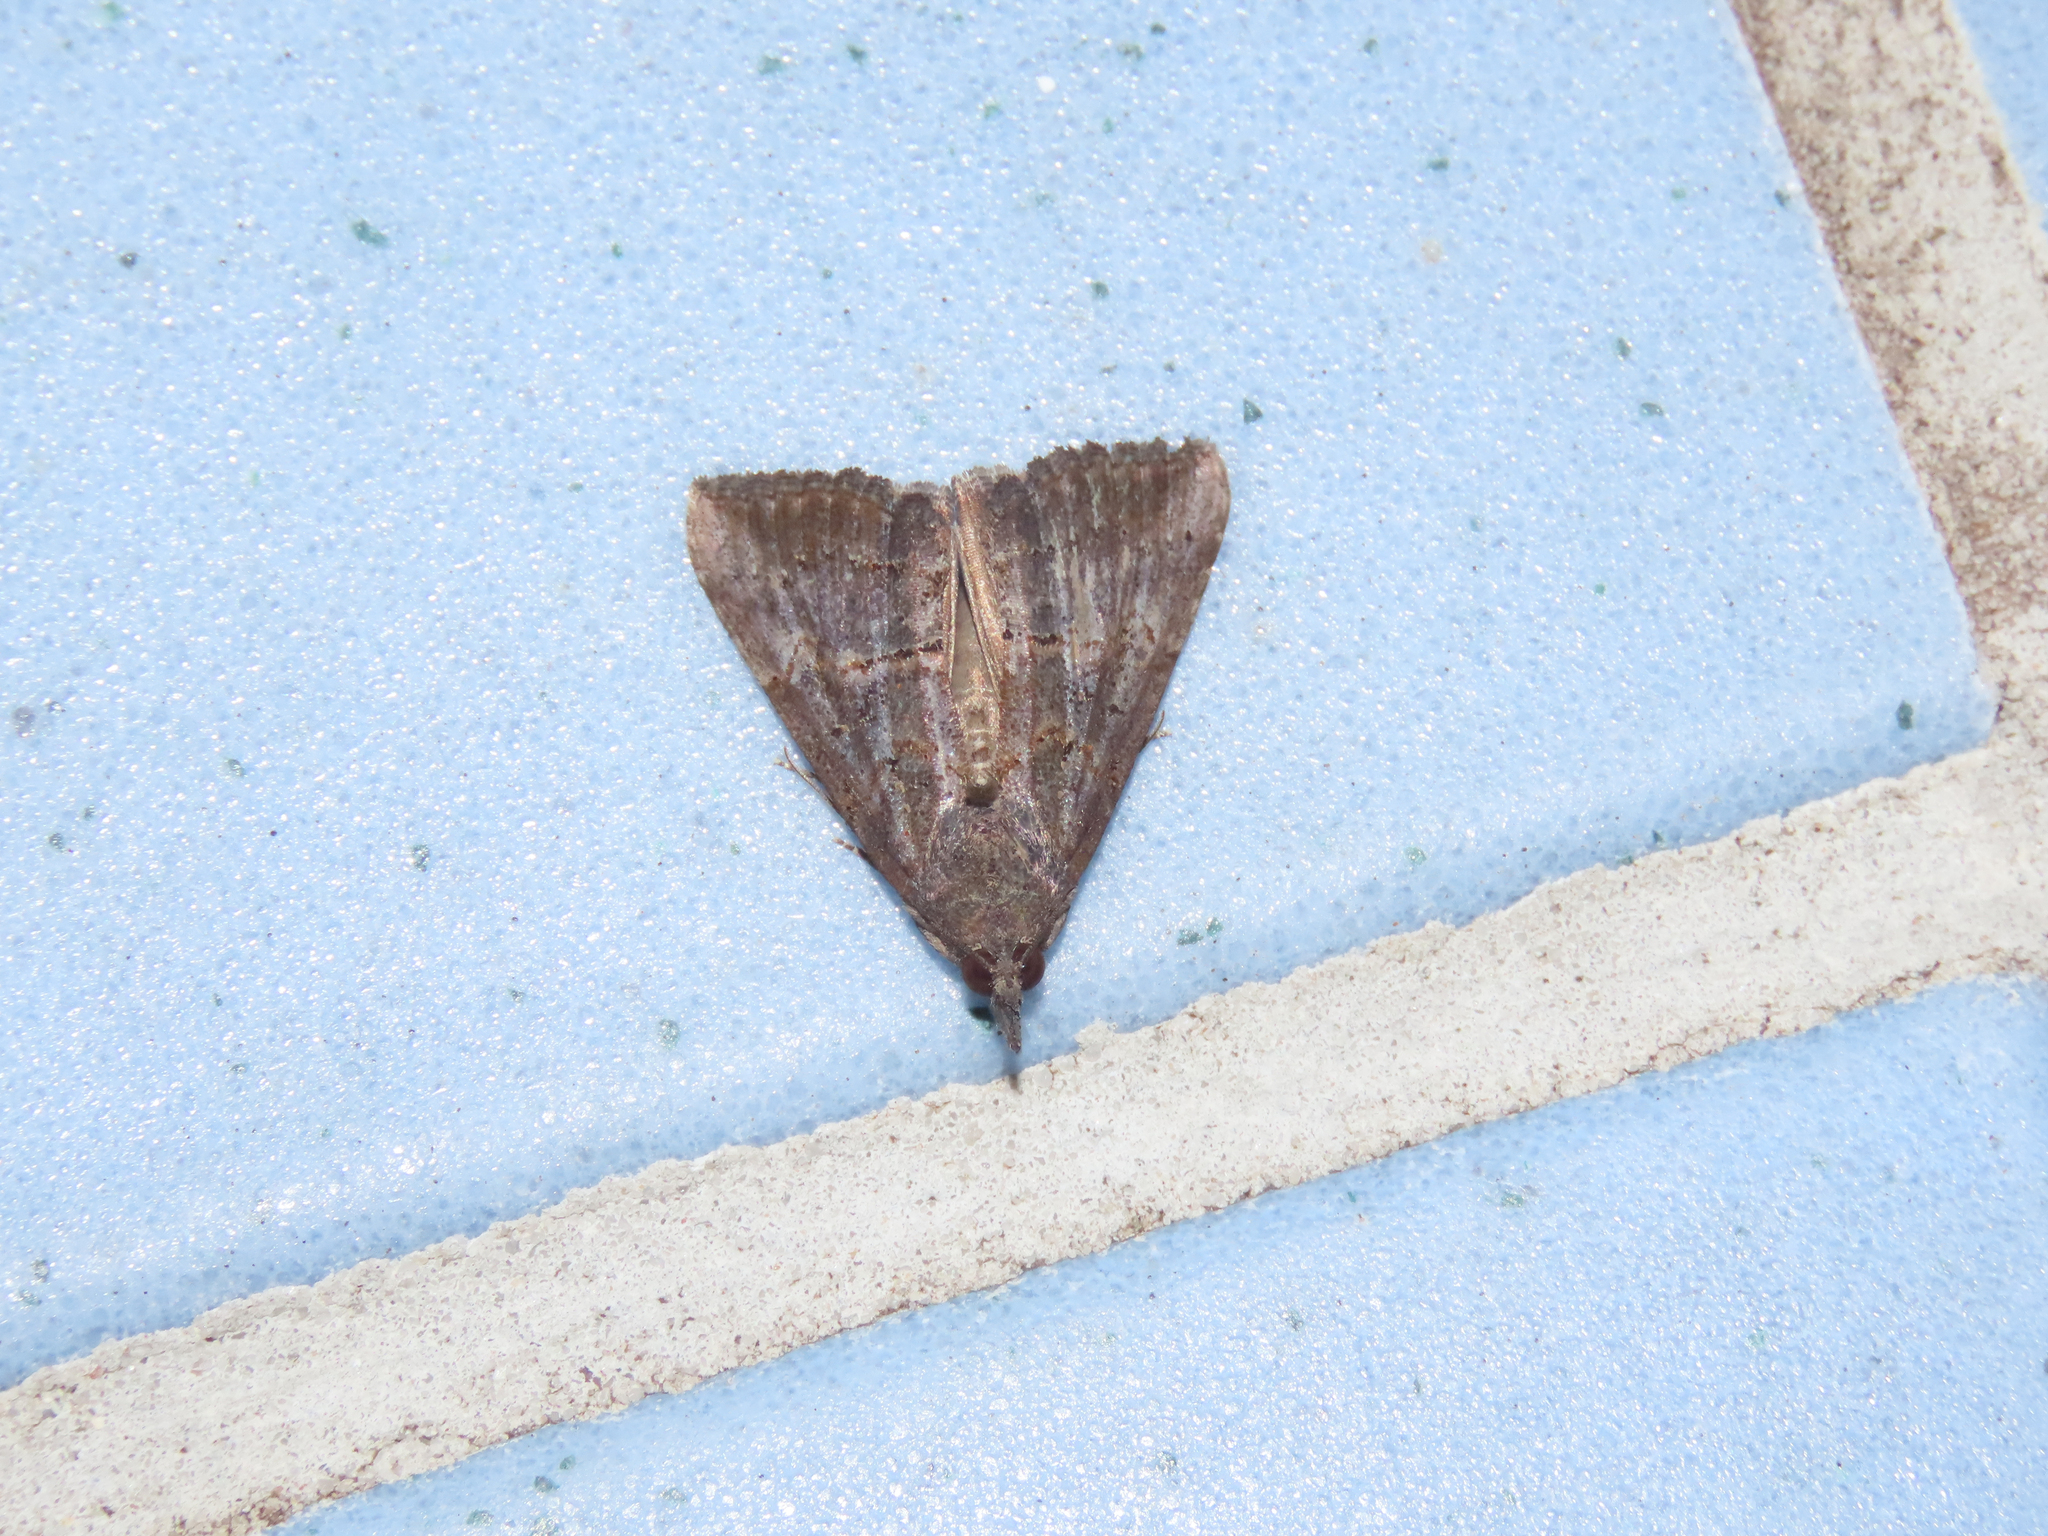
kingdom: Animalia
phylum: Arthropoda
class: Insecta
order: Lepidoptera
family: Erebidae
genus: Hypena
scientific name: Hypena scabra
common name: Green cloverworm
